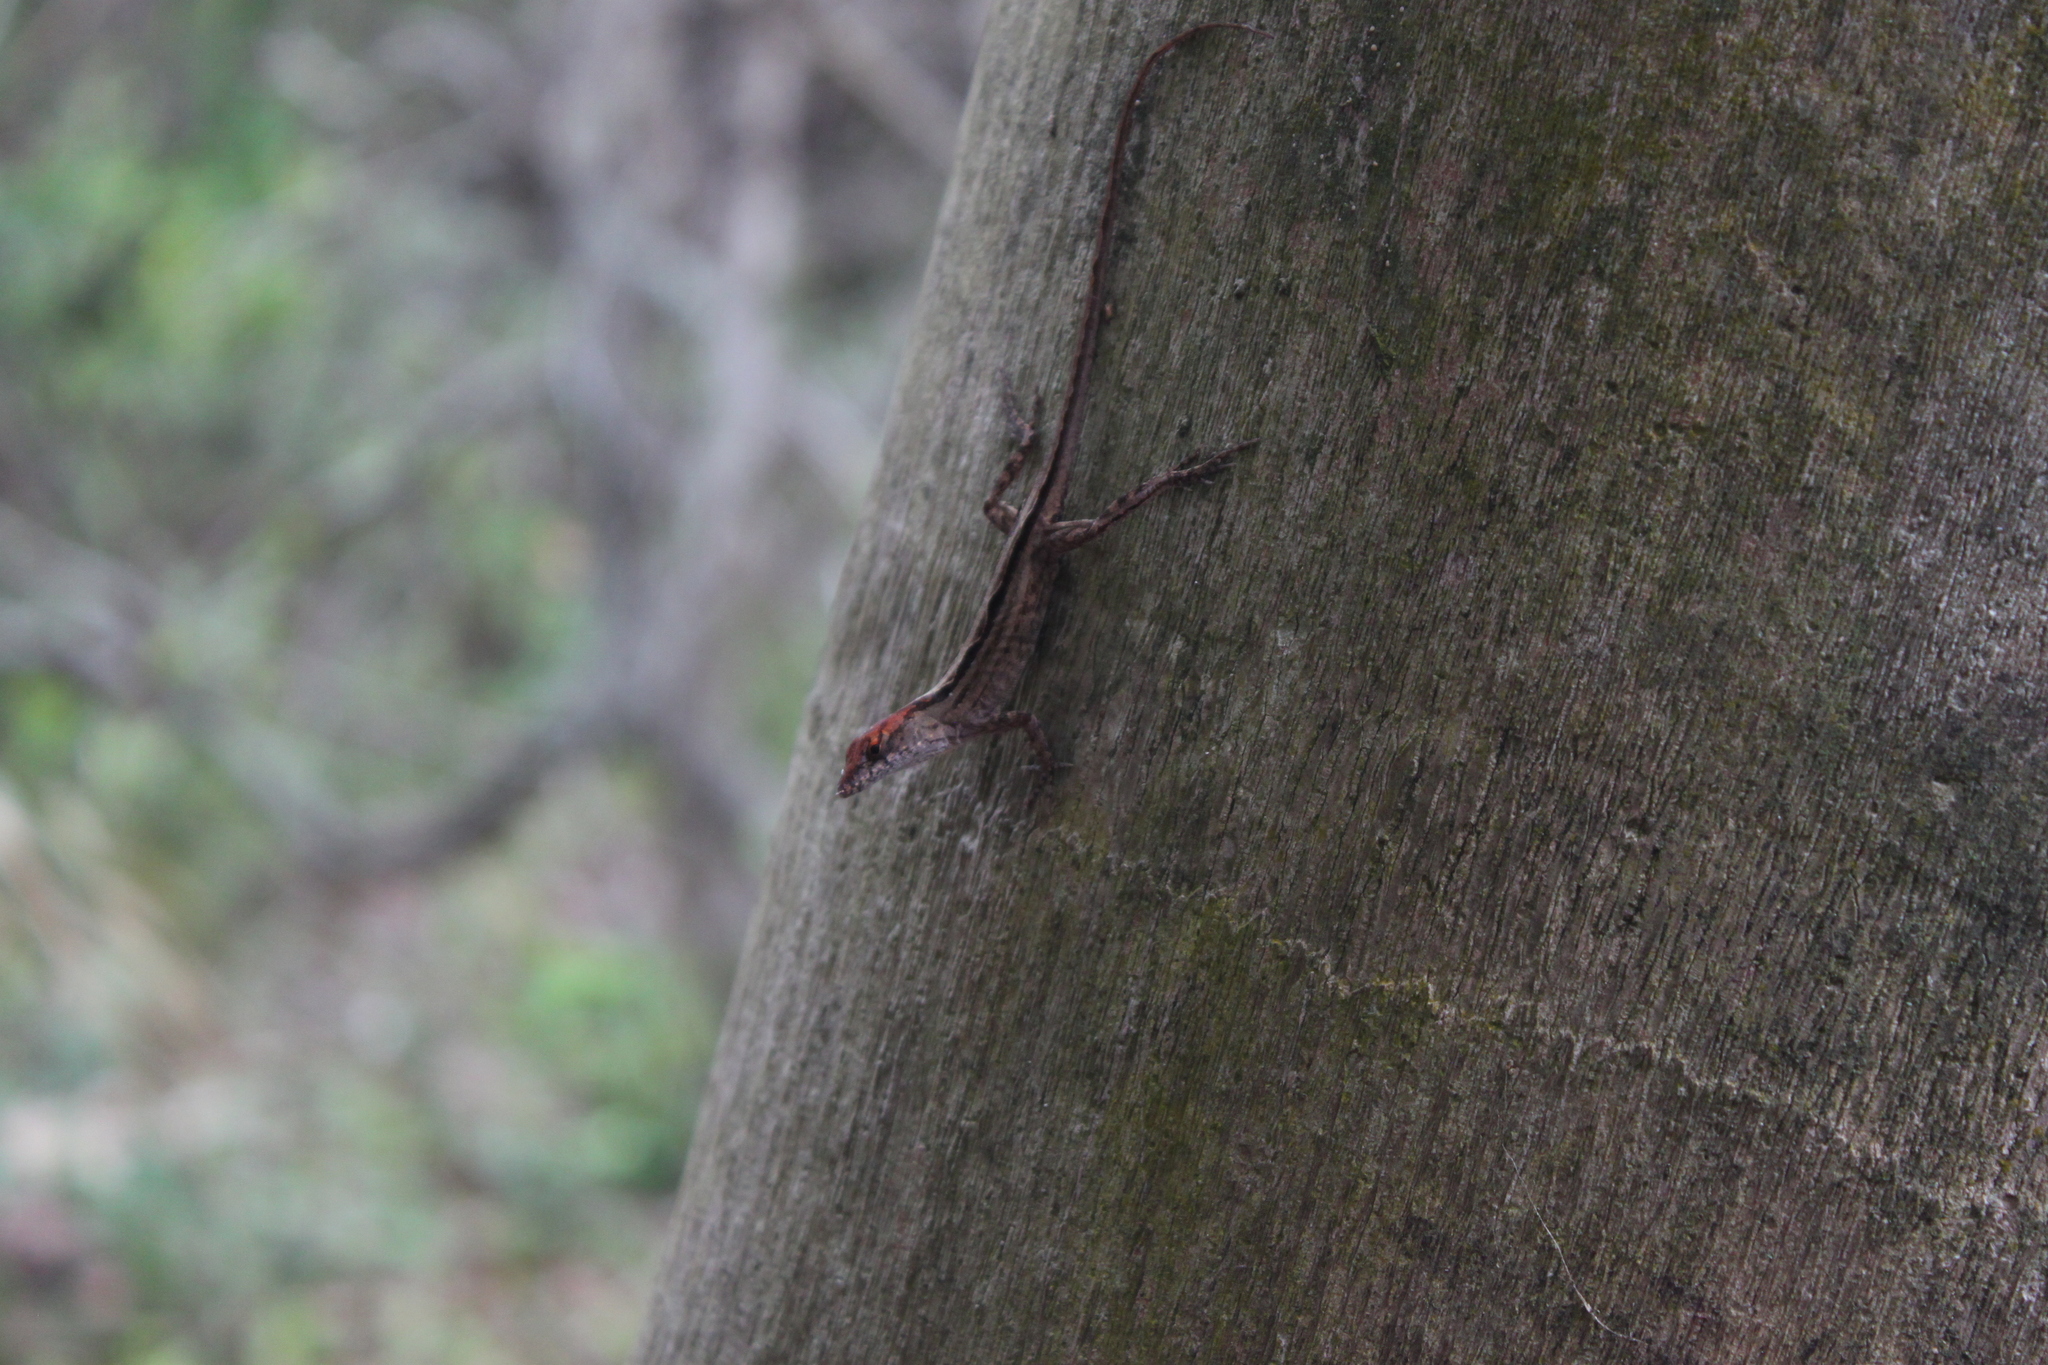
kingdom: Animalia
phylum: Chordata
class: Squamata
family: Dactyloidae
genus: Anolis
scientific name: Anolis sagrei
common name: Brown anole
